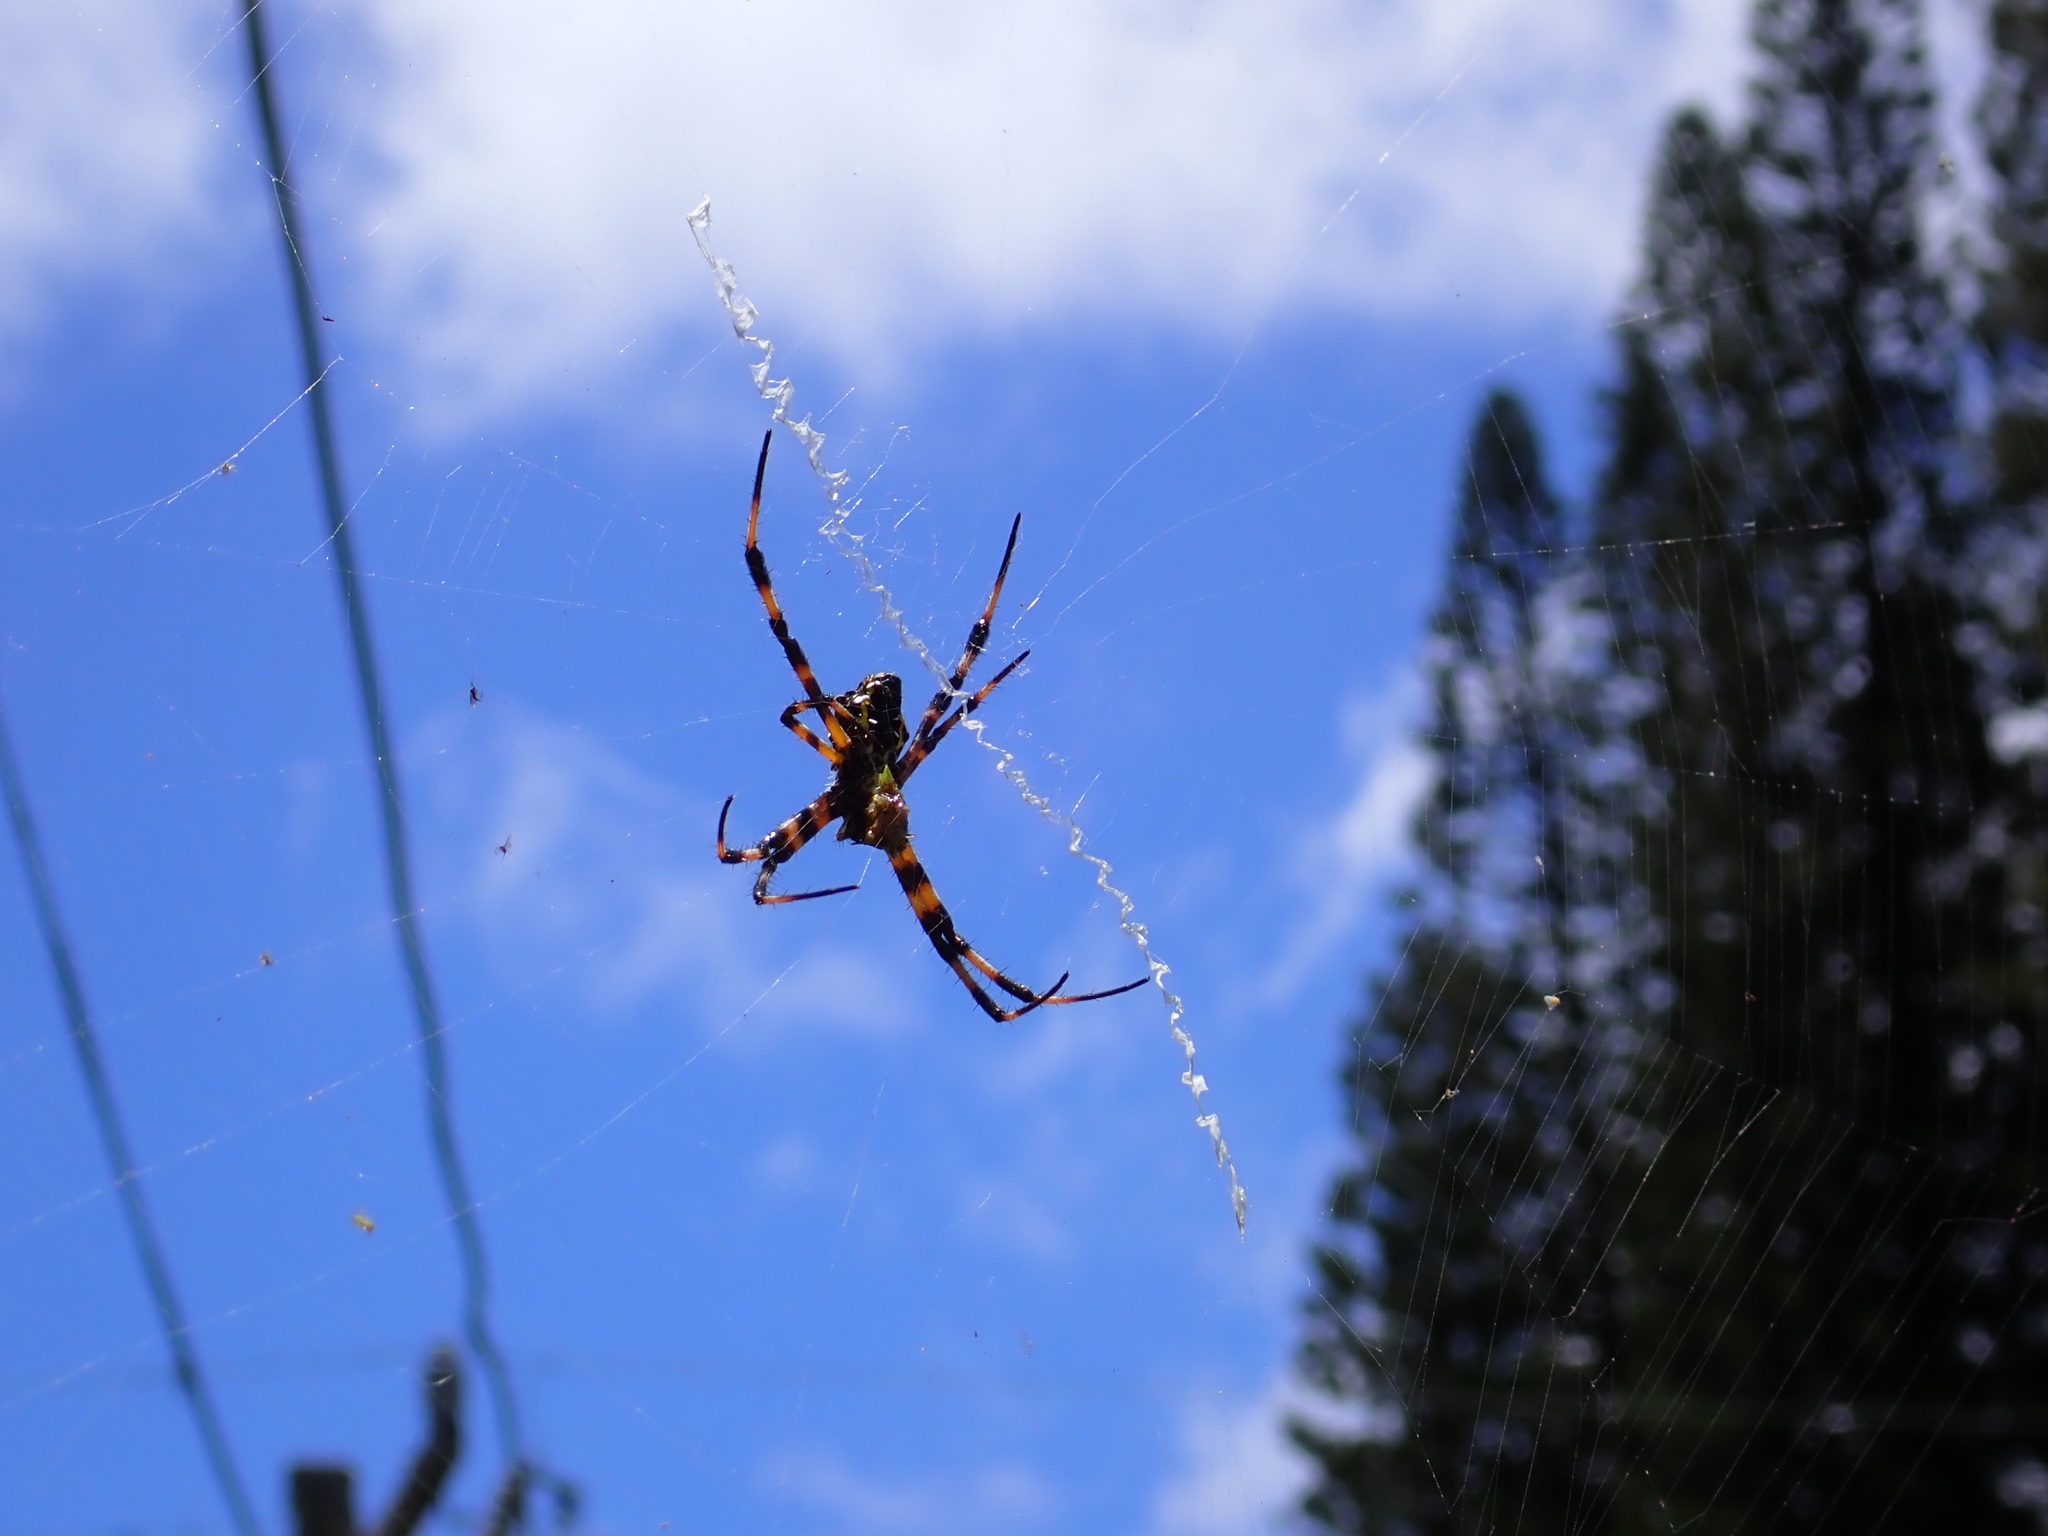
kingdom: Animalia
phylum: Arthropoda
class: Arachnida
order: Araneae
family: Araneidae
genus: Argiope
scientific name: Argiope appensa
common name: Garden spider
